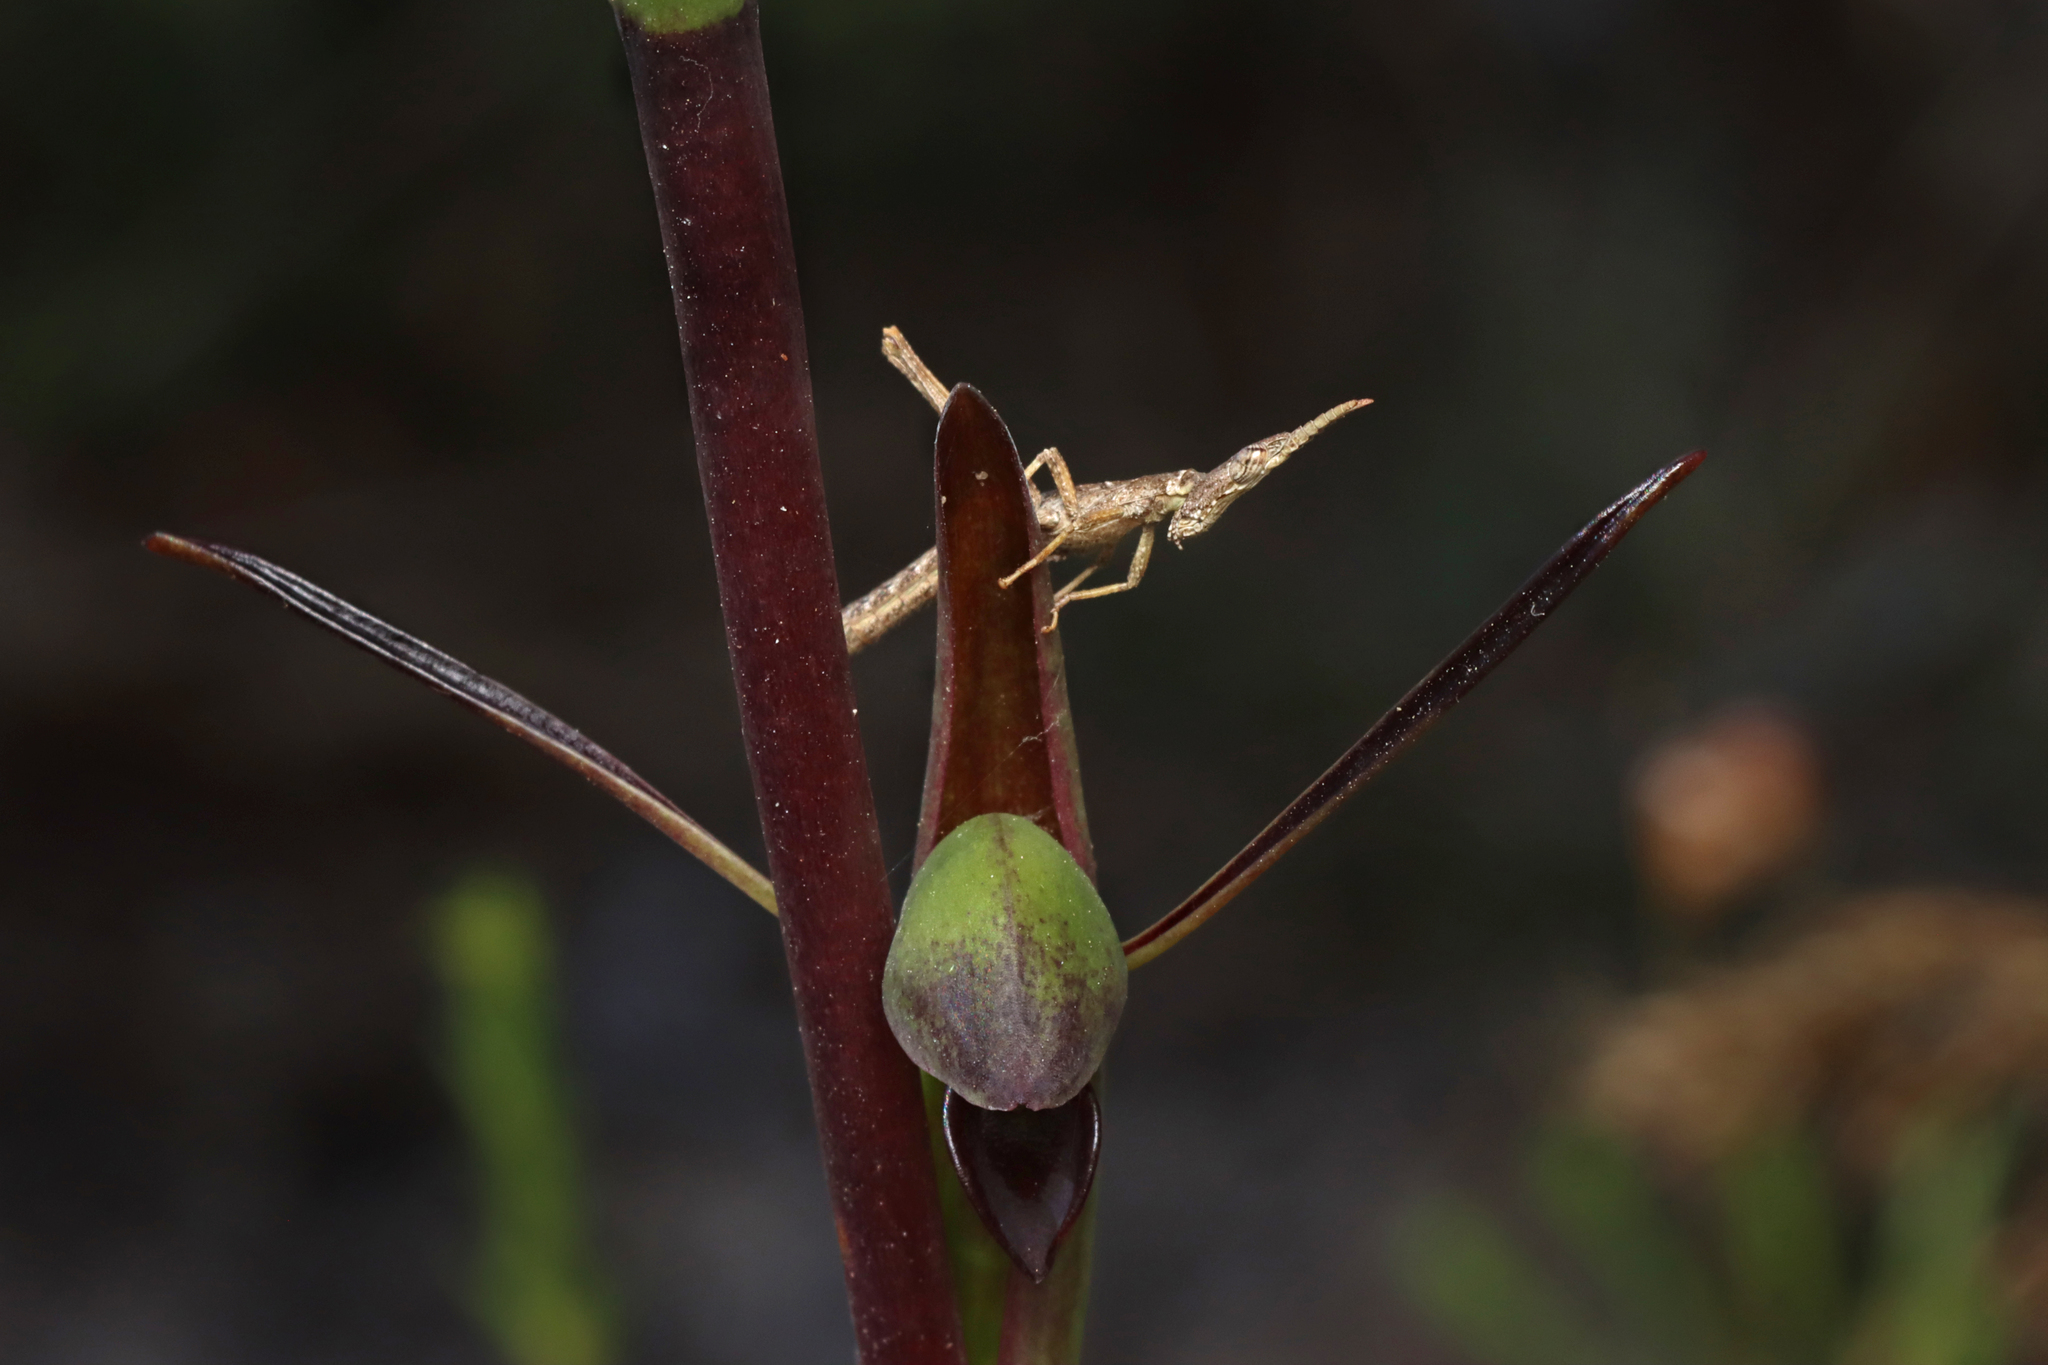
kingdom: Animalia
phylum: Arthropoda
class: Insecta
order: Orthoptera
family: Morabidae
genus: Vandiemenella
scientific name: Vandiemenella viatica
